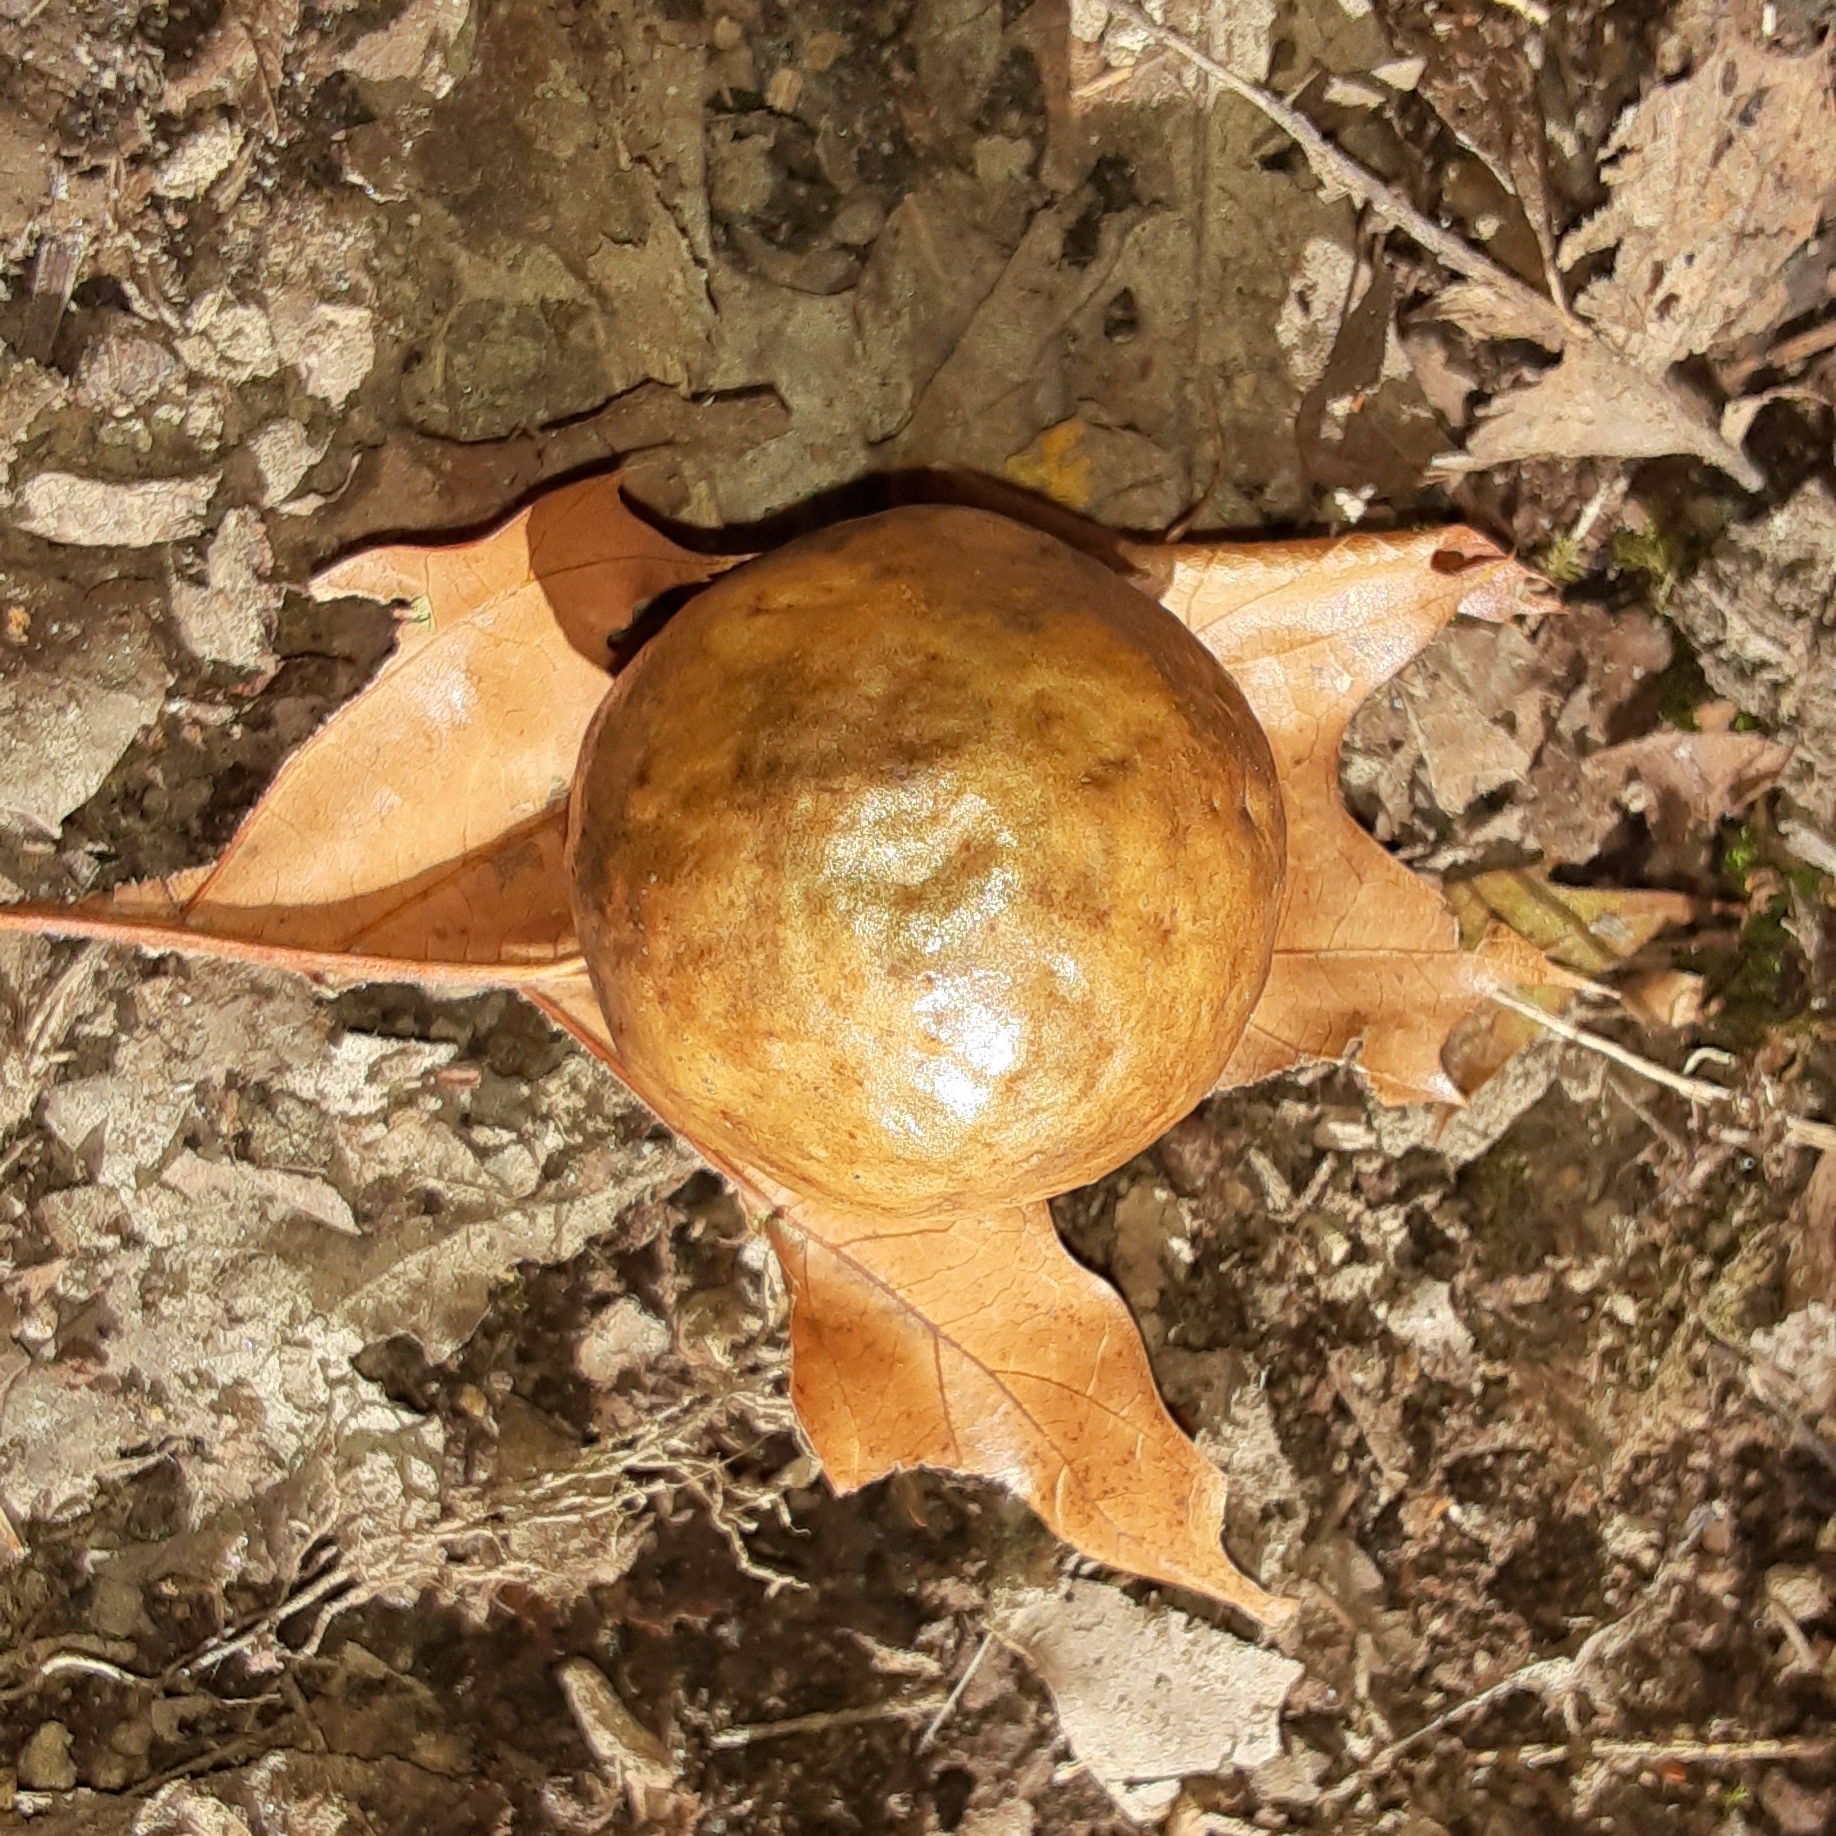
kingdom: Animalia
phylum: Arthropoda
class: Insecta
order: Hymenoptera
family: Cynipidae
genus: Amphibolips
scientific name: Amphibolips
